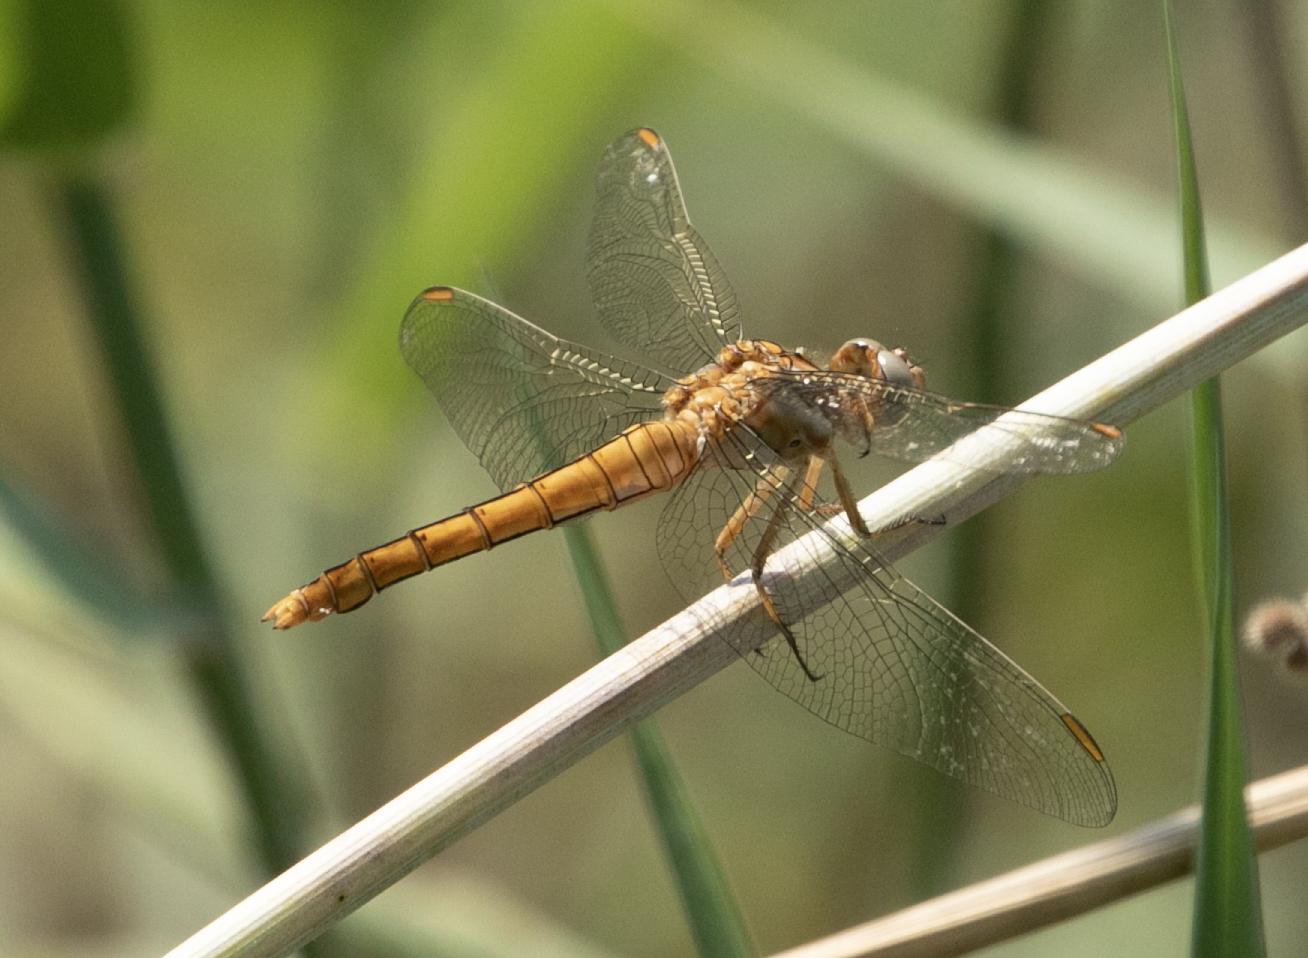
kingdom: Animalia
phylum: Arthropoda
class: Insecta
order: Odonata
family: Libellulidae
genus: Orthetrum
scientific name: Orthetrum brunneum
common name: Southern skimmer
